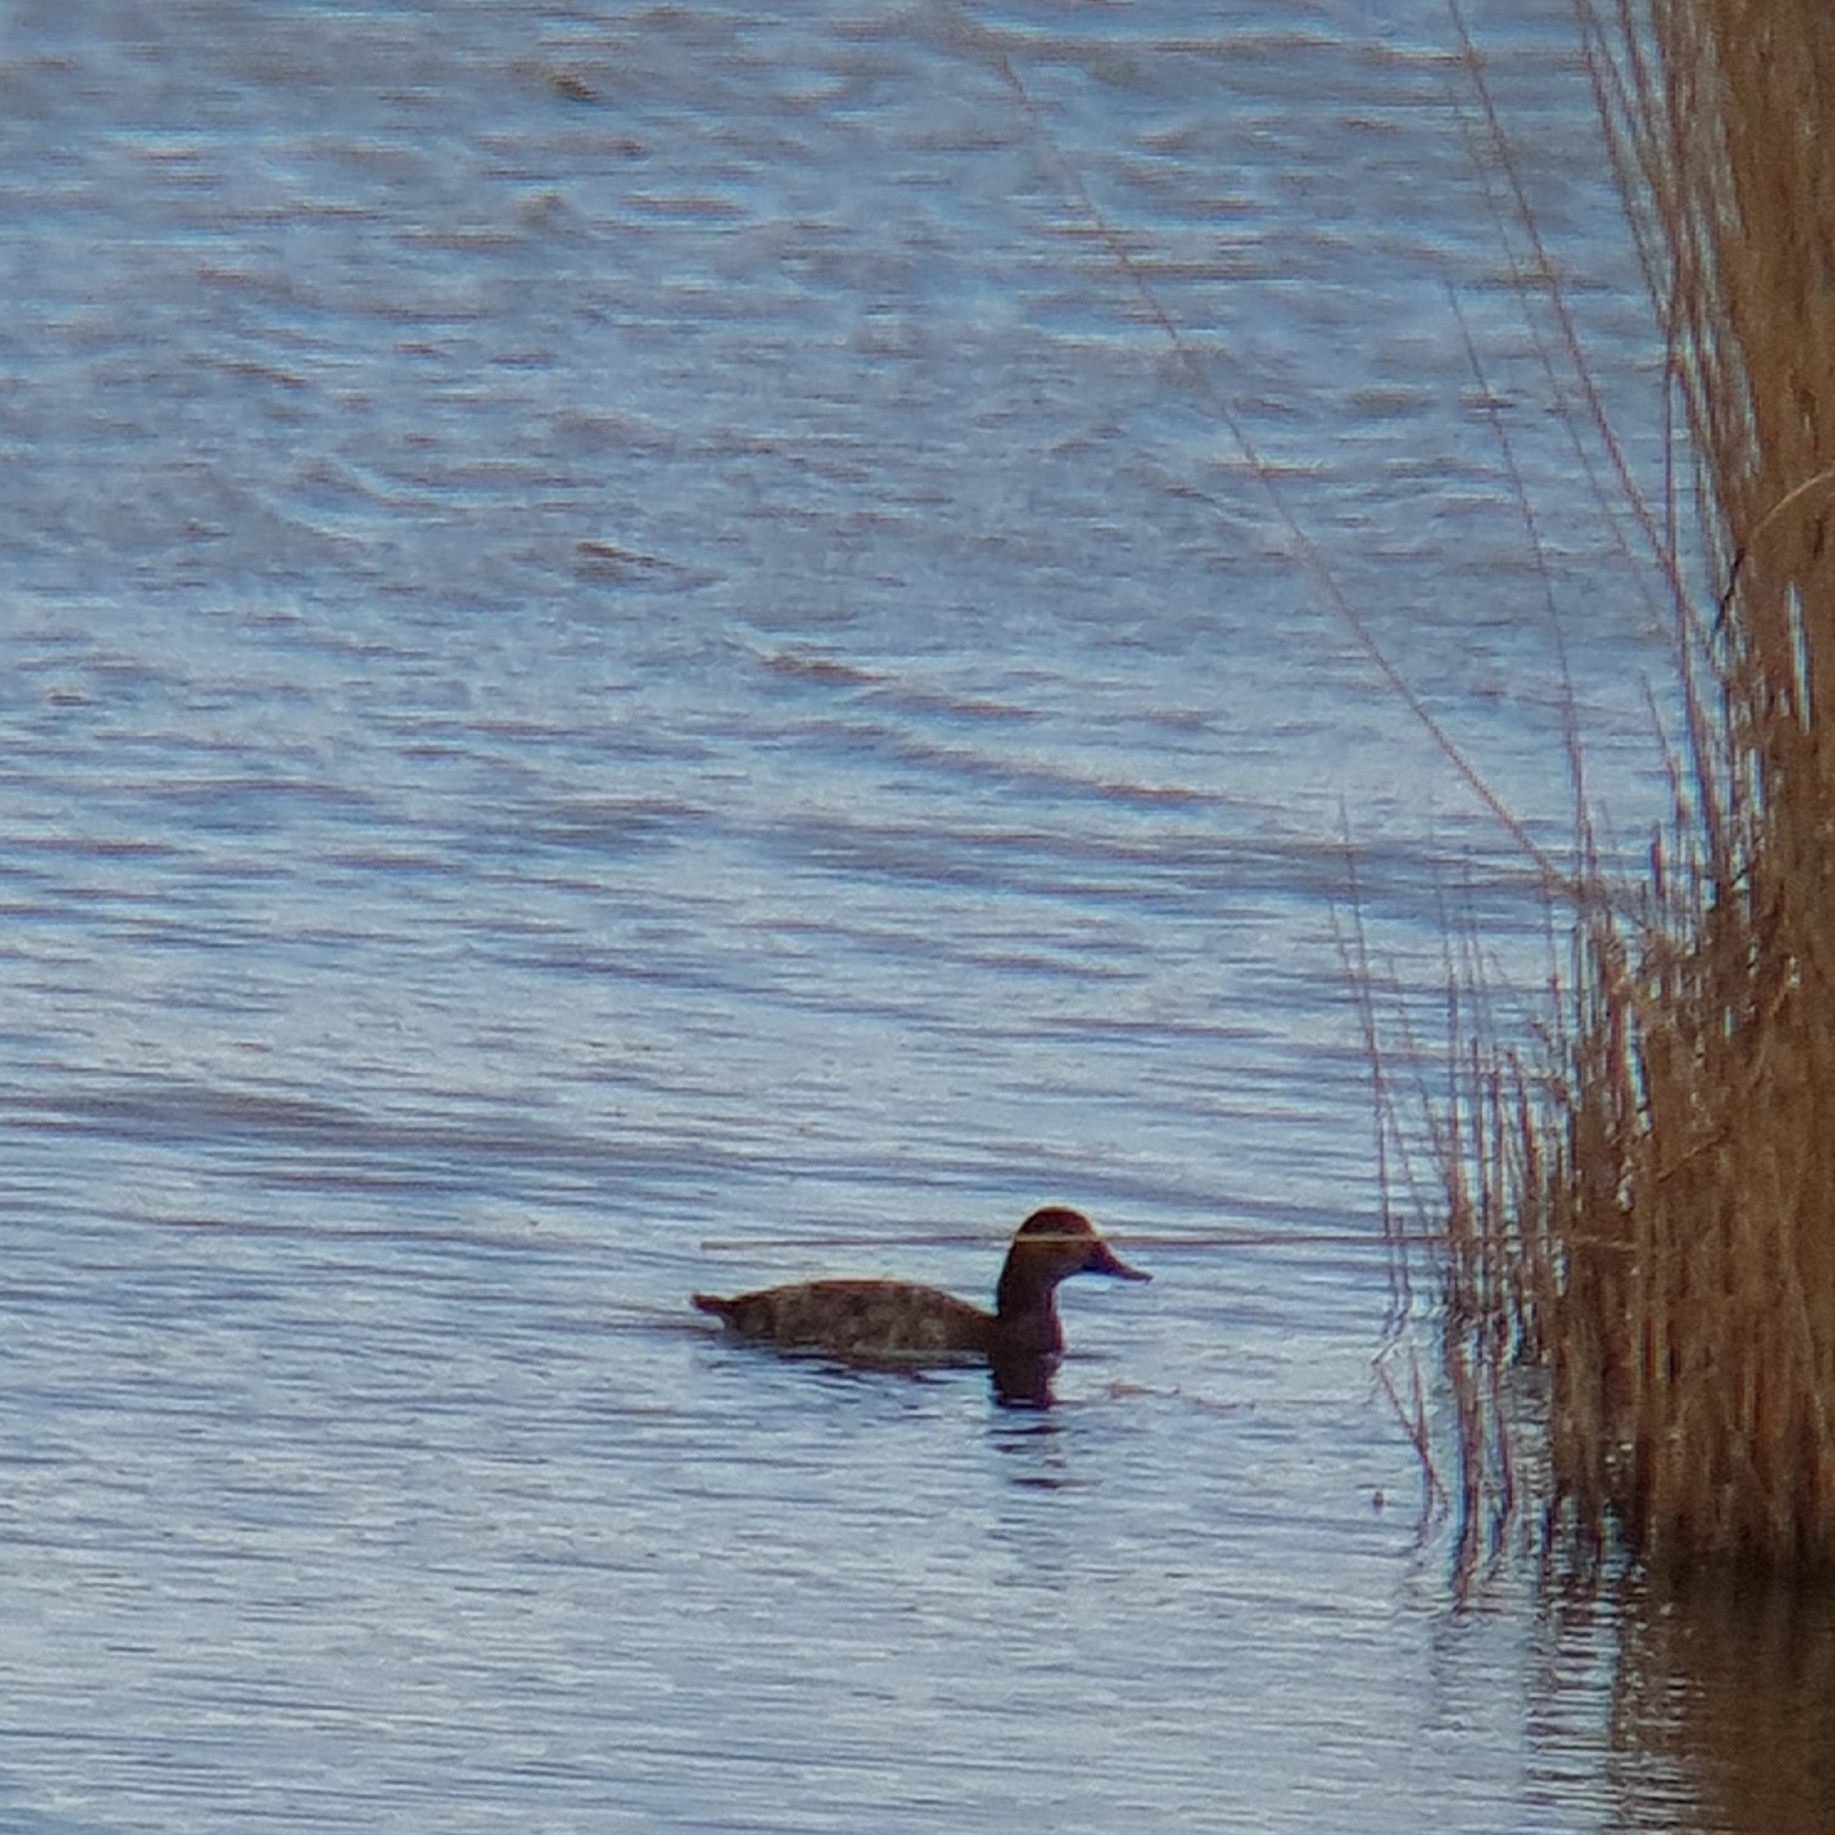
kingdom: Animalia
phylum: Chordata
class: Aves
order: Anseriformes
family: Anatidae
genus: Aythya
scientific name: Aythya ferina
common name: Common pochard
